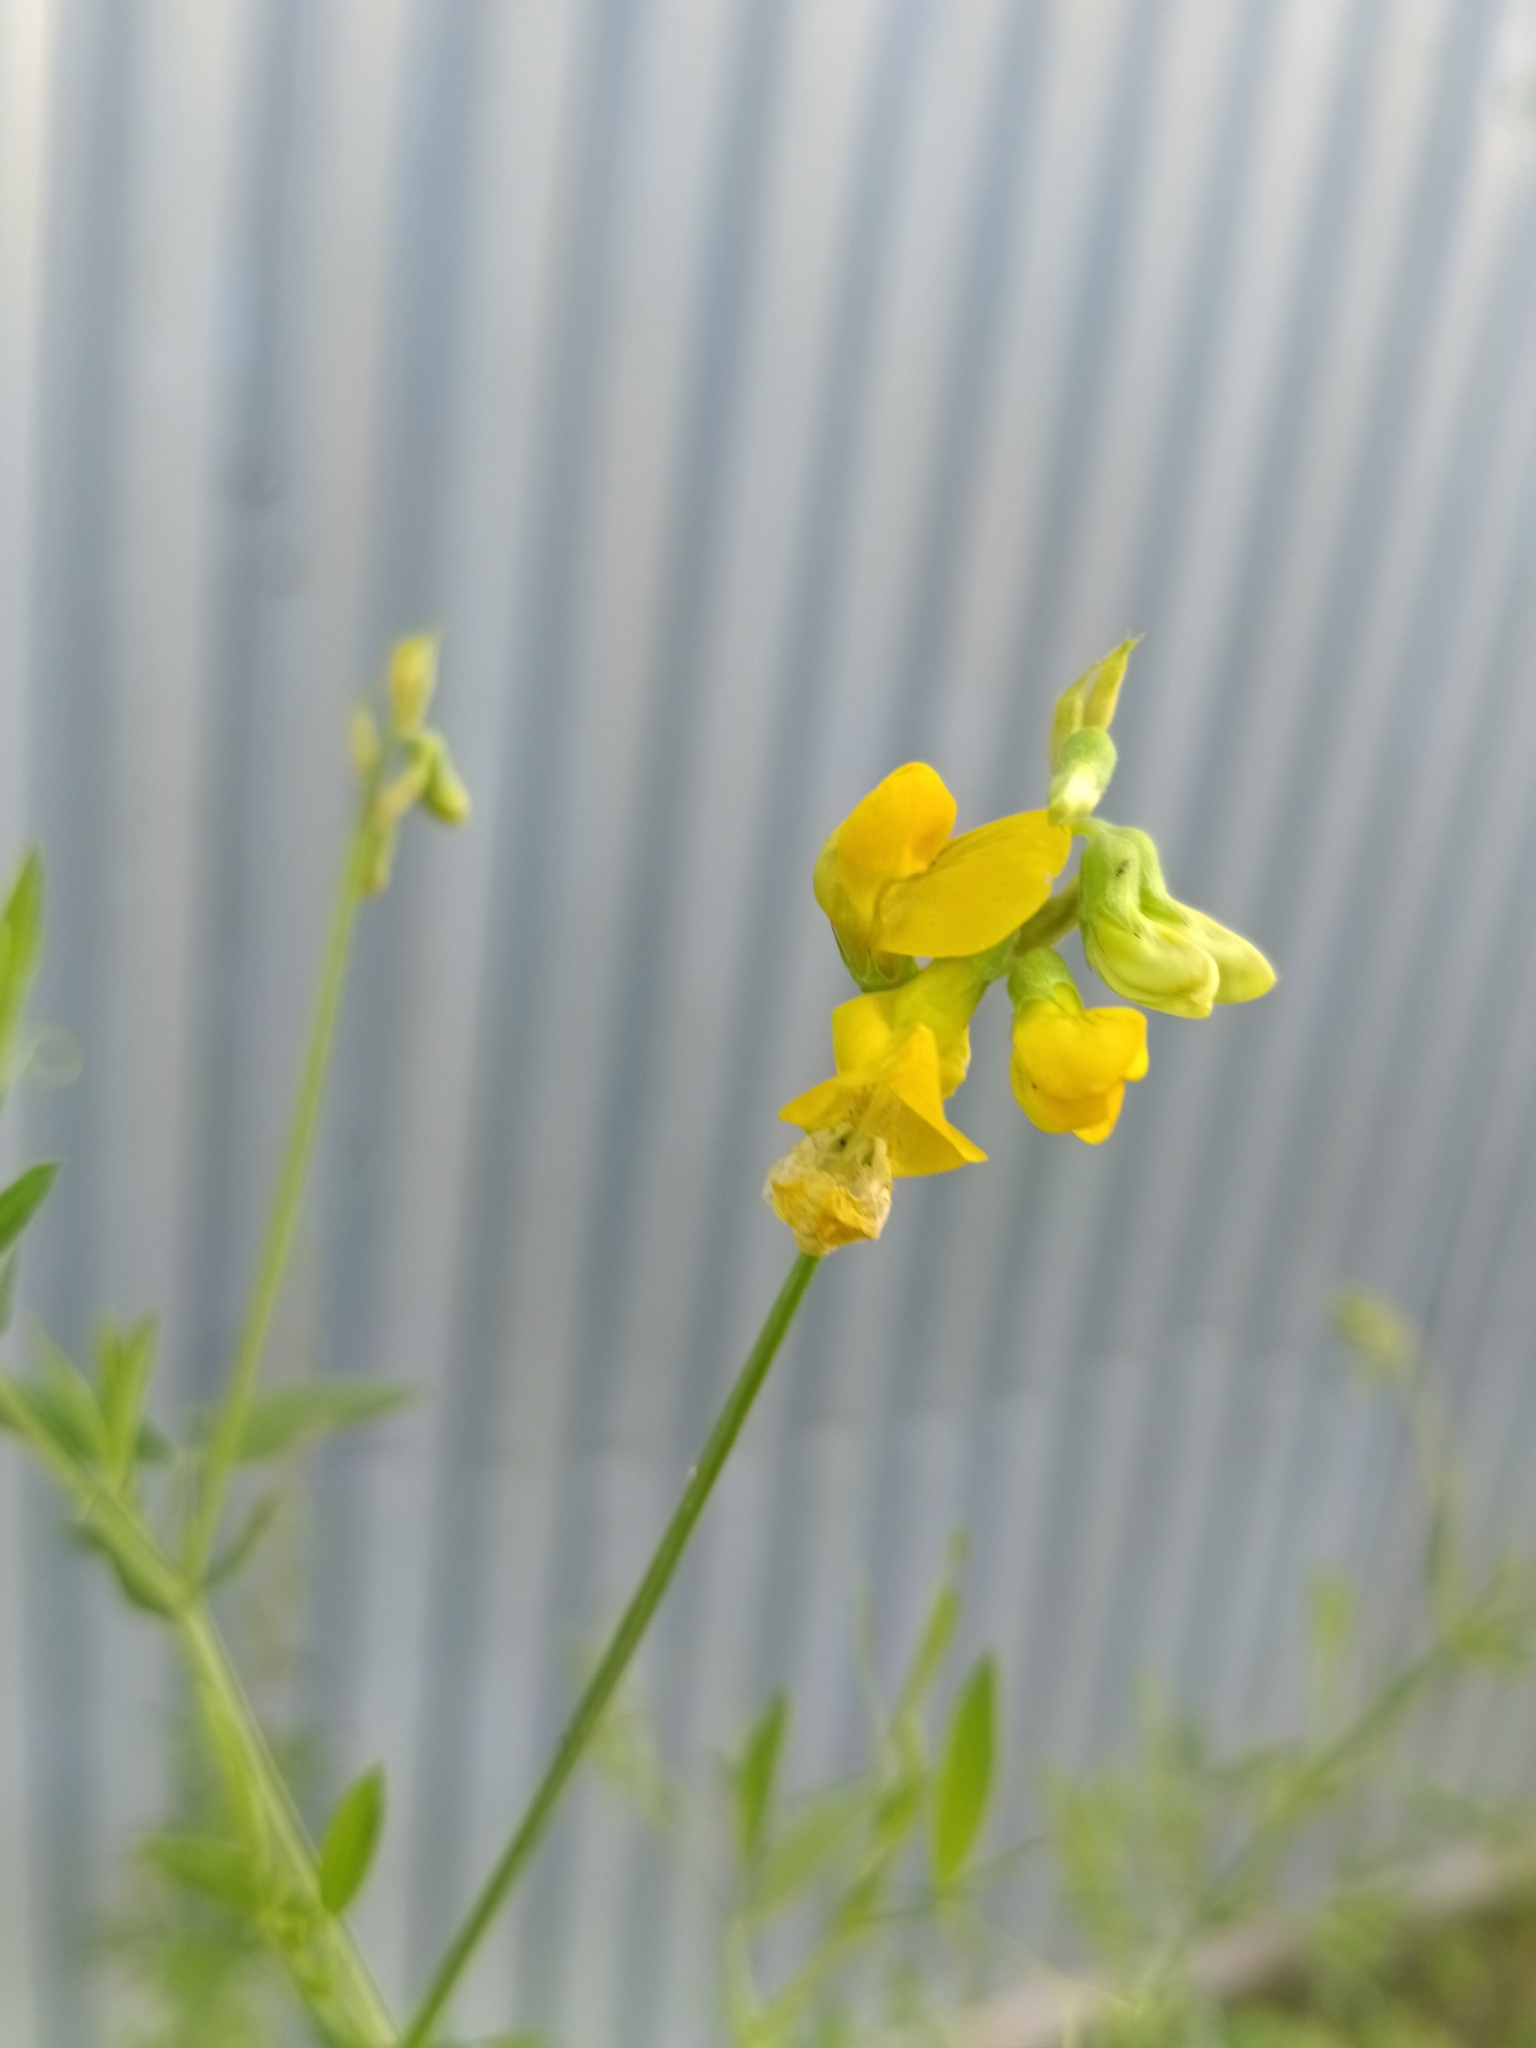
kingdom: Plantae
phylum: Tracheophyta
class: Magnoliopsida
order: Fabales
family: Fabaceae
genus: Lathyrus
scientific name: Lathyrus pratensis
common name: Meadow vetchling
